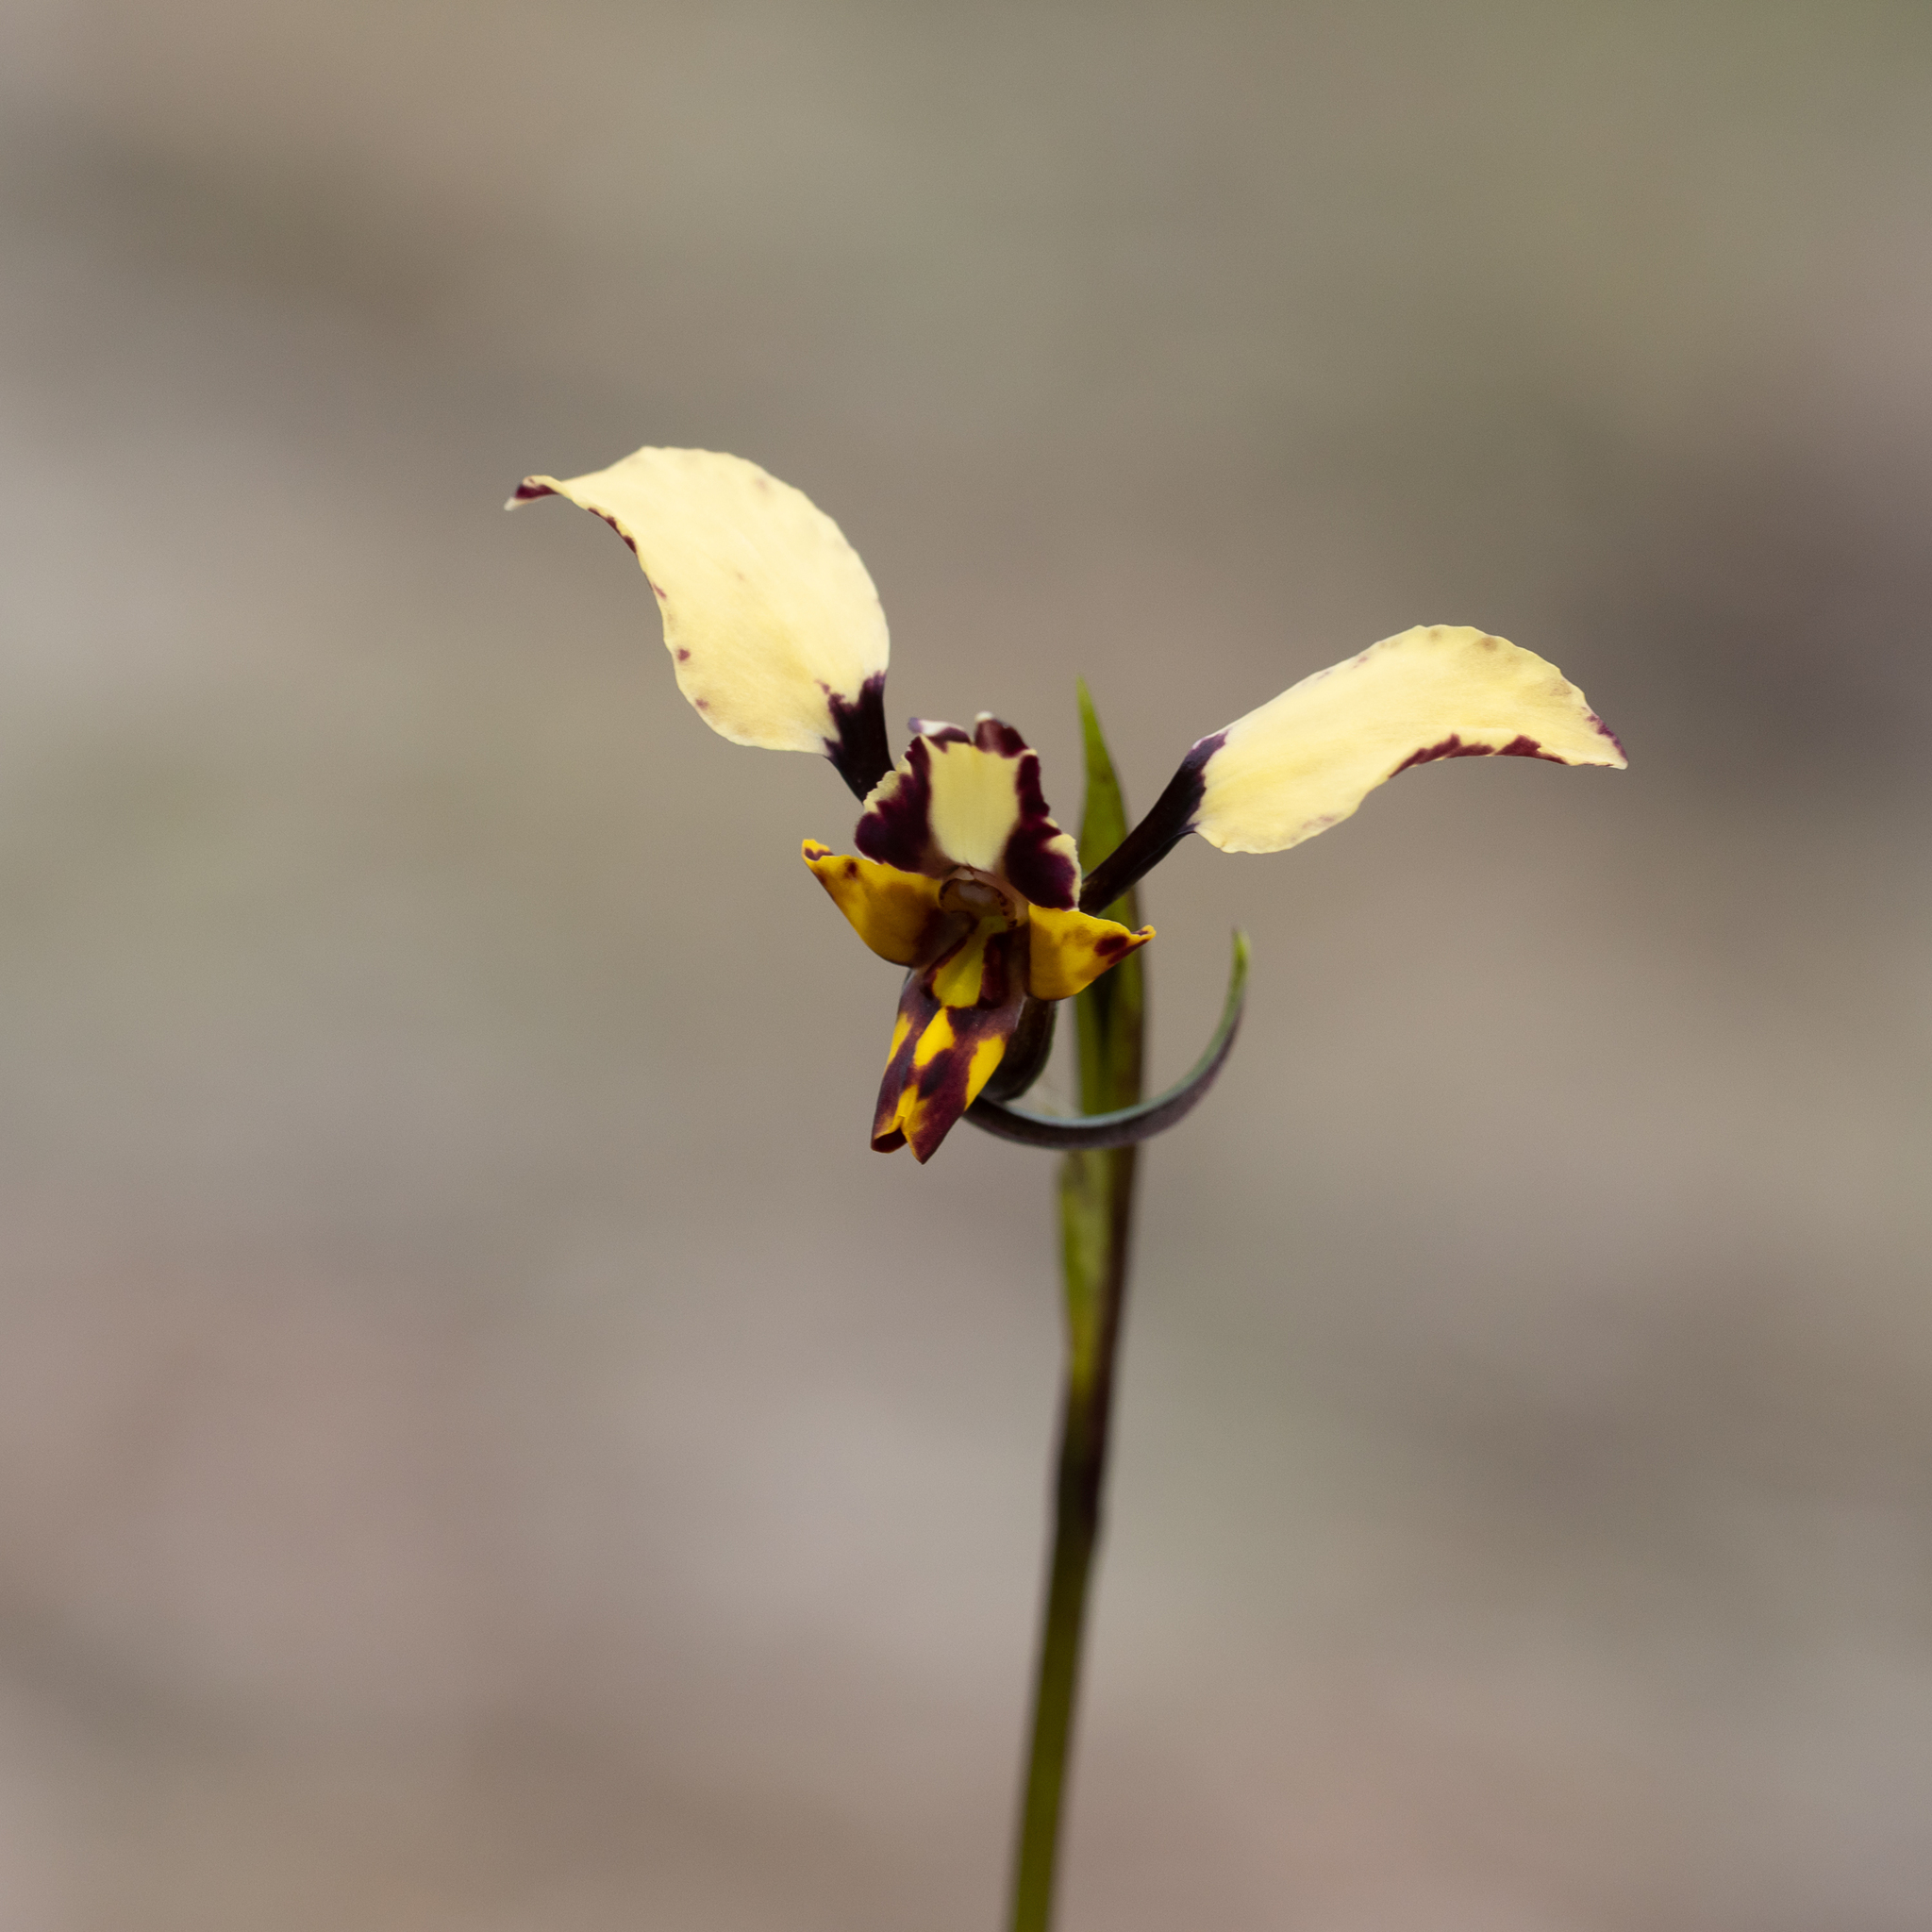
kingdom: Plantae
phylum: Tracheophyta
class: Liliopsida
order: Asparagales
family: Orchidaceae
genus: Diuris
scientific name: Diuris pardina
